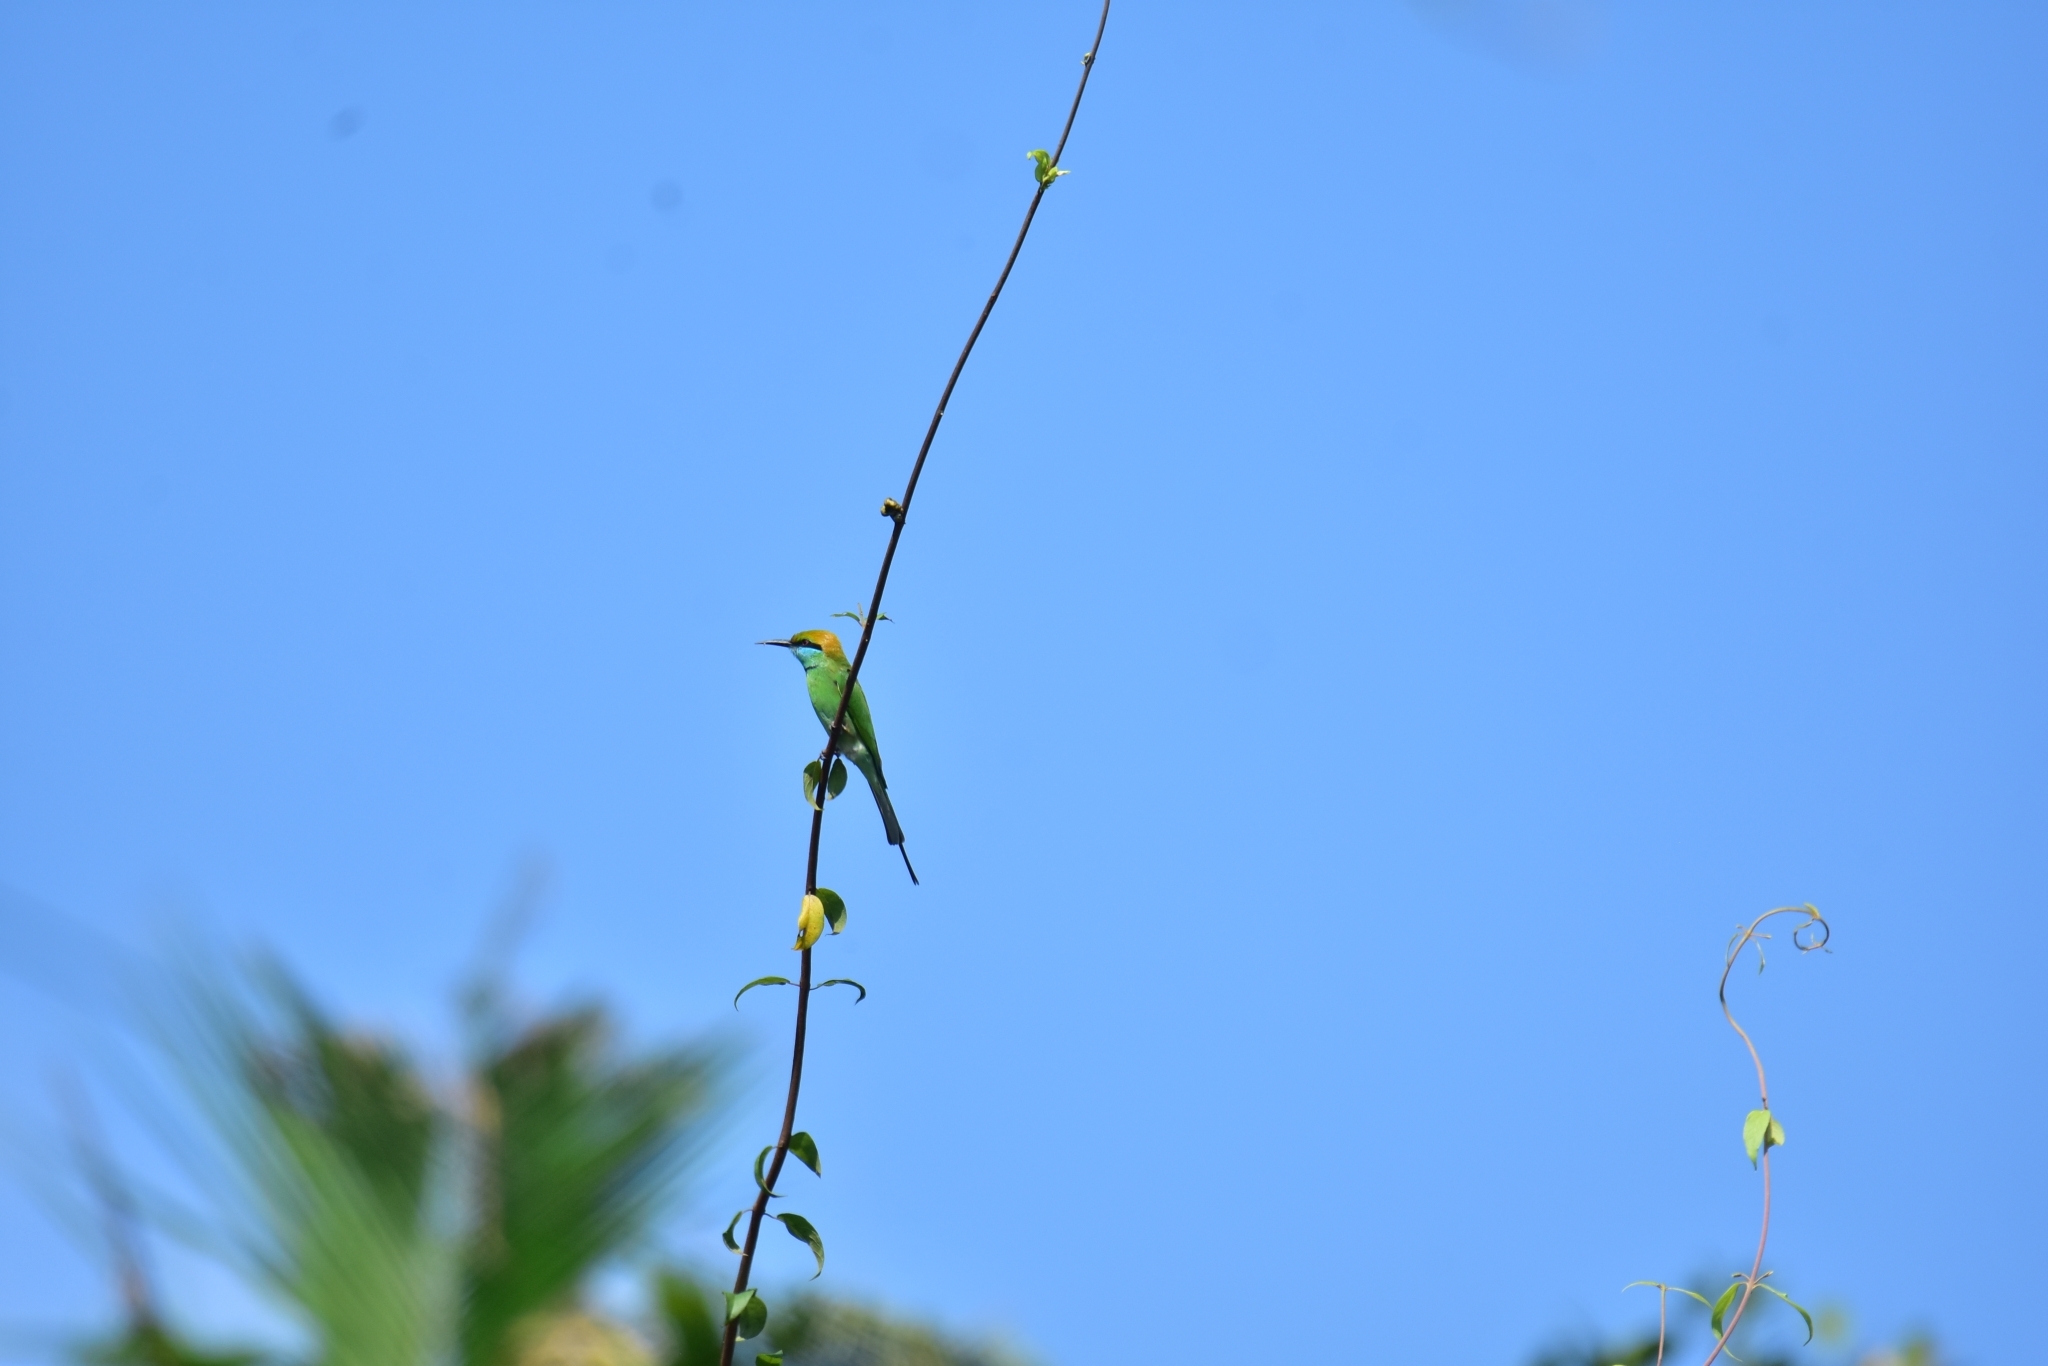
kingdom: Animalia
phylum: Chordata
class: Aves
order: Coraciiformes
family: Meropidae
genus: Merops
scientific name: Merops orientalis
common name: Green bee-eater
